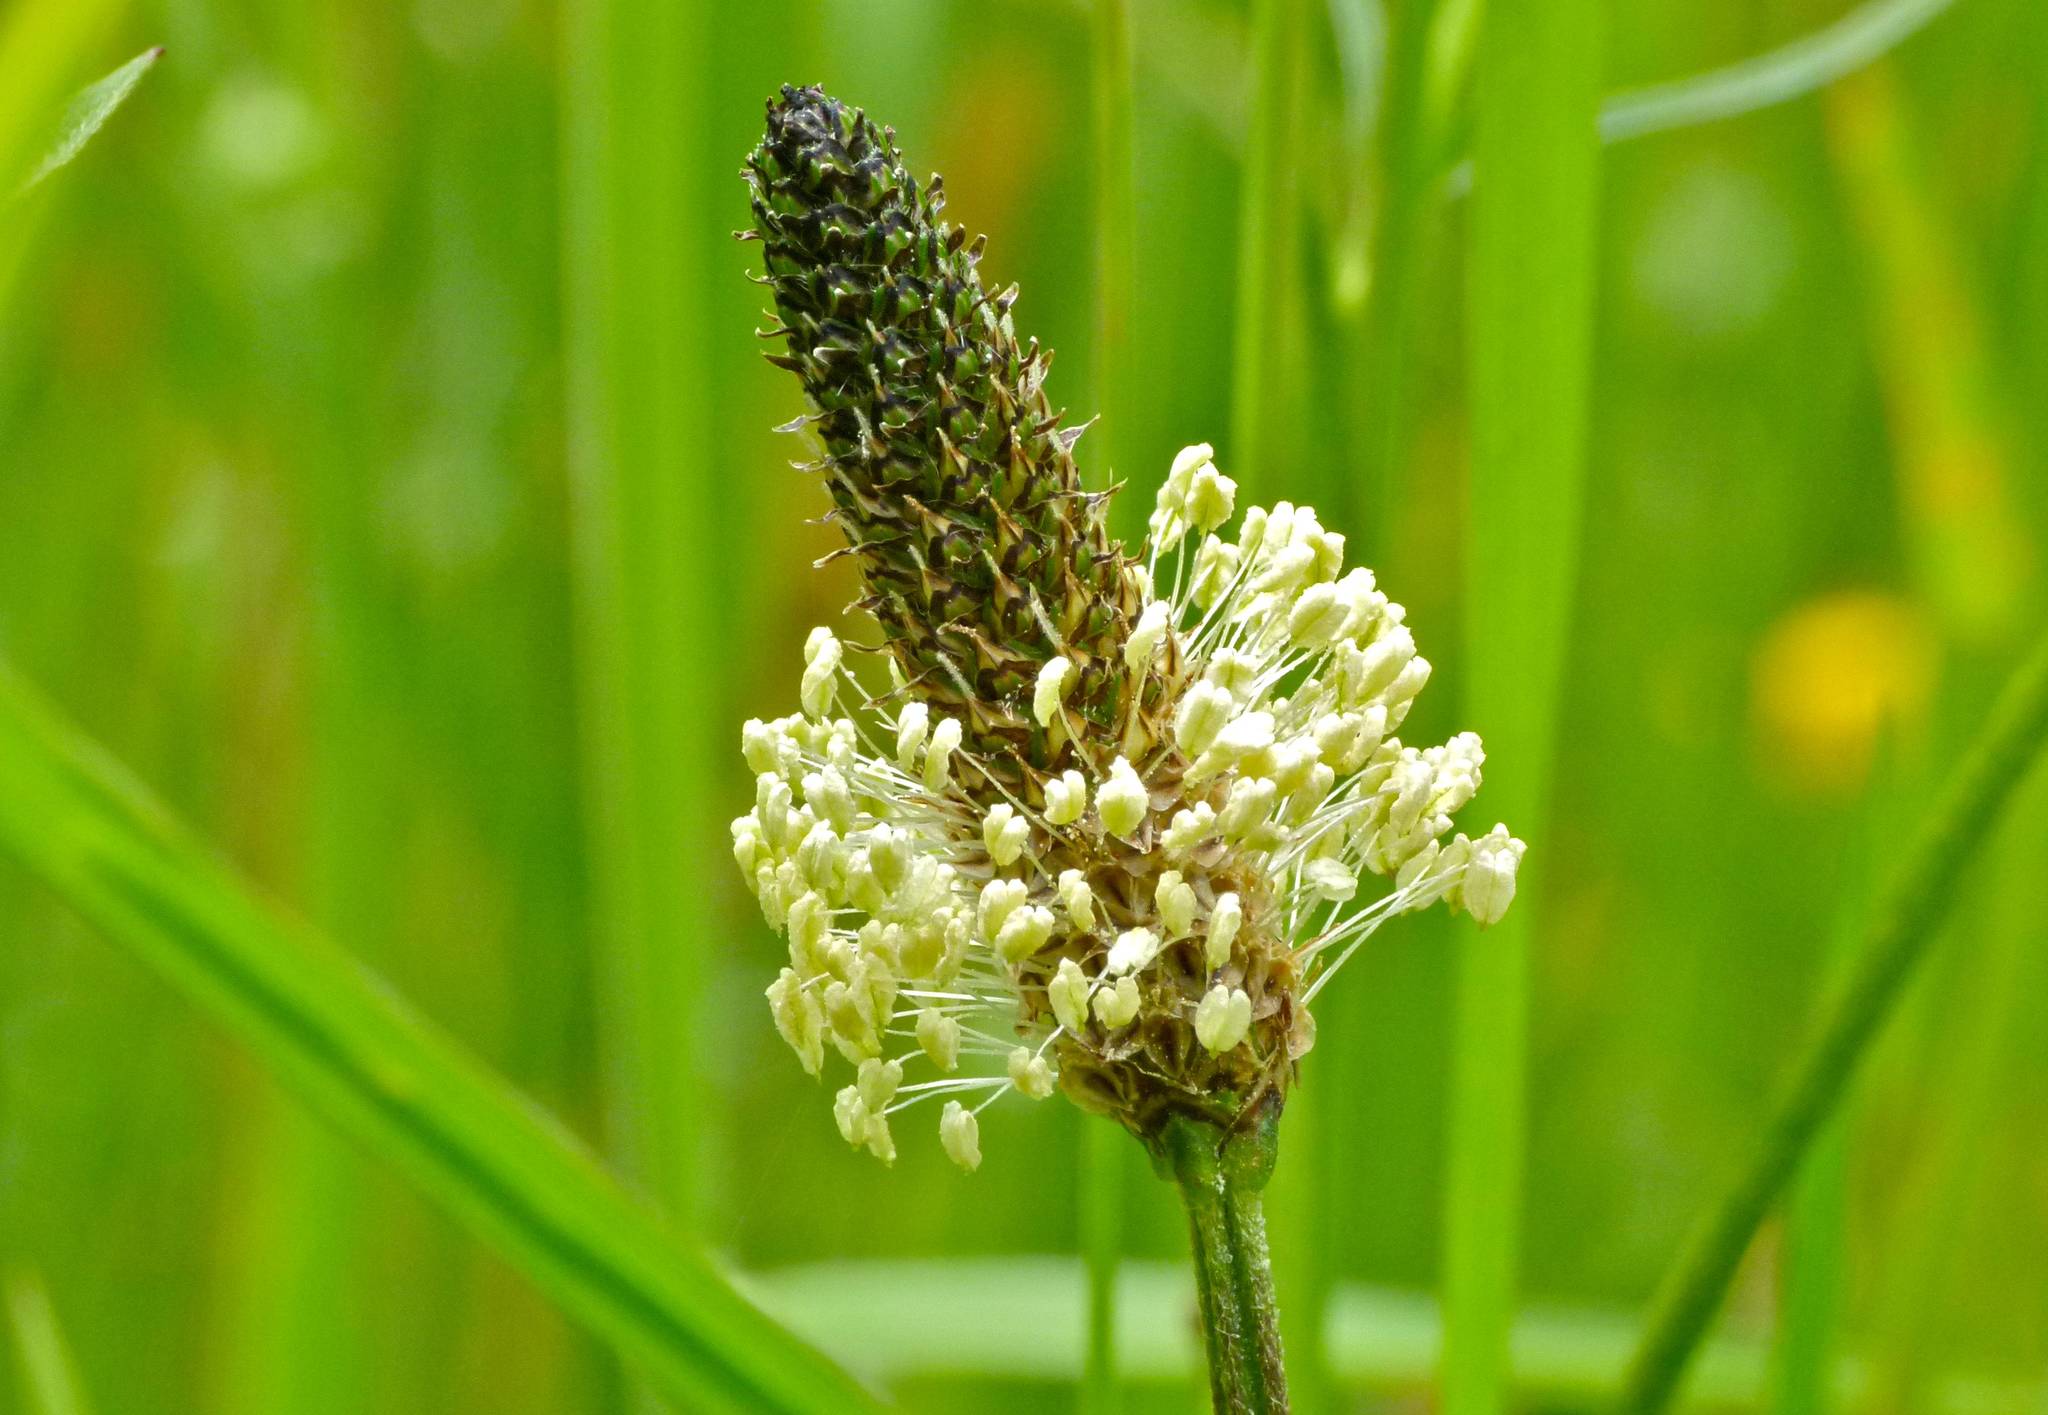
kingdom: Plantae
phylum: Tracheophyta
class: Magnoliopsida
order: Lamiales
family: Plantaginaceae
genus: Plantago
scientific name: Plantago lanceolata
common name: Ribwort plantain
